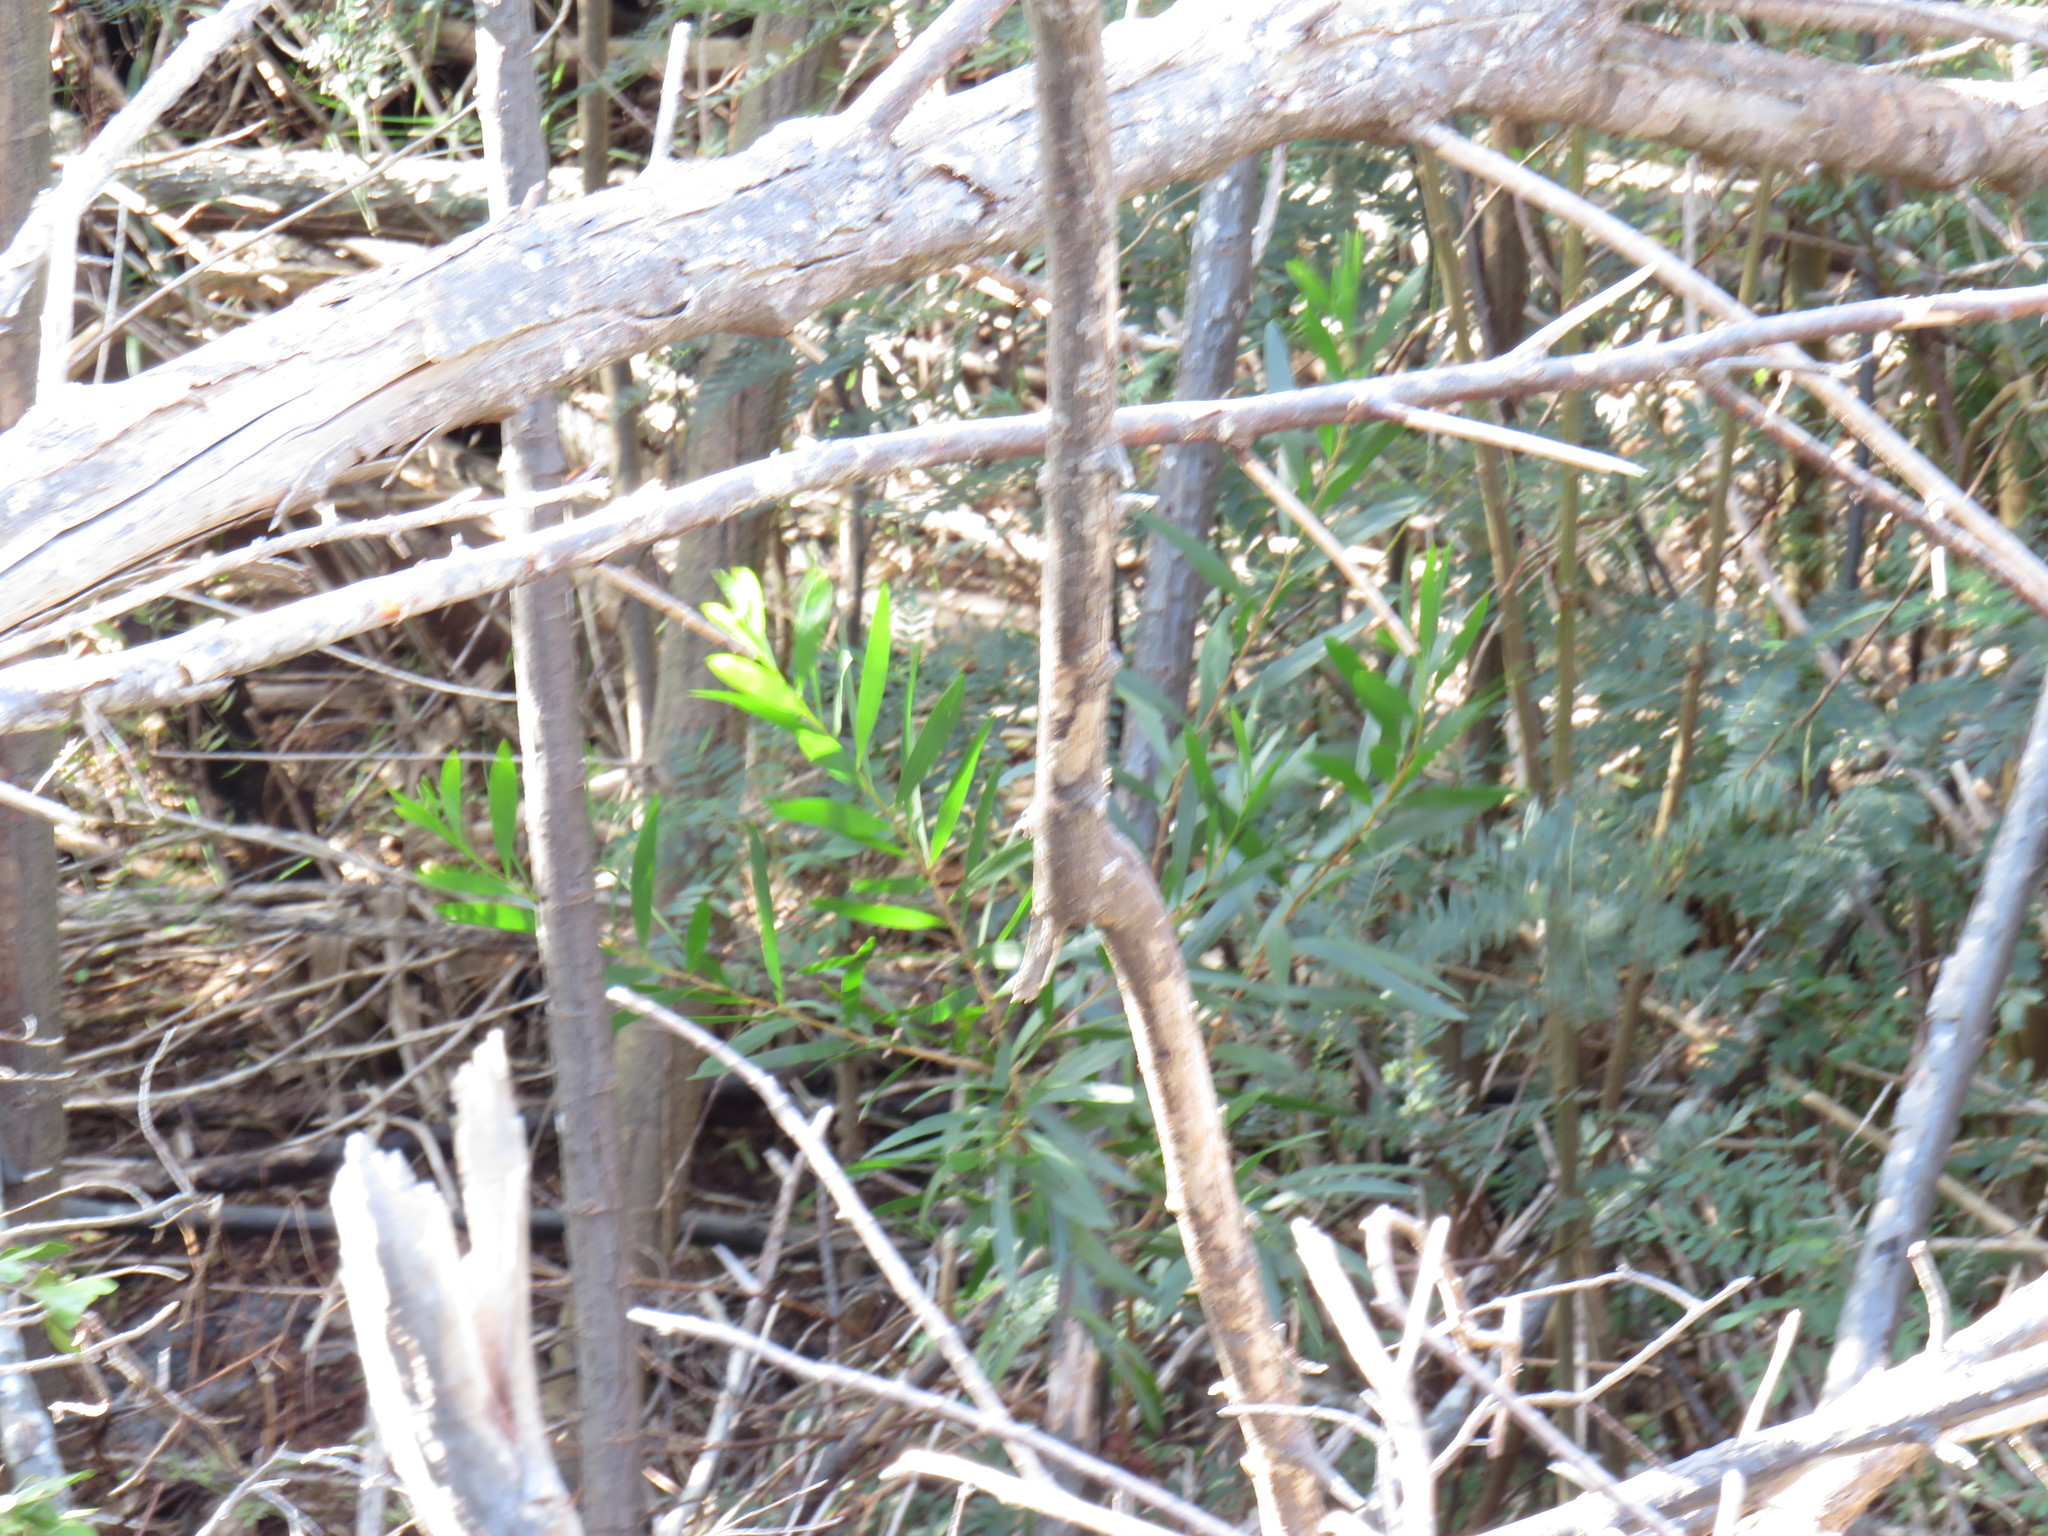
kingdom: Plantae
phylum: Tracheophyta
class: Magnoliopsida
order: Fabales
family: Fabaceae
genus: Acacia
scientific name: Acacia longifolia
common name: Sydney golden wattle
